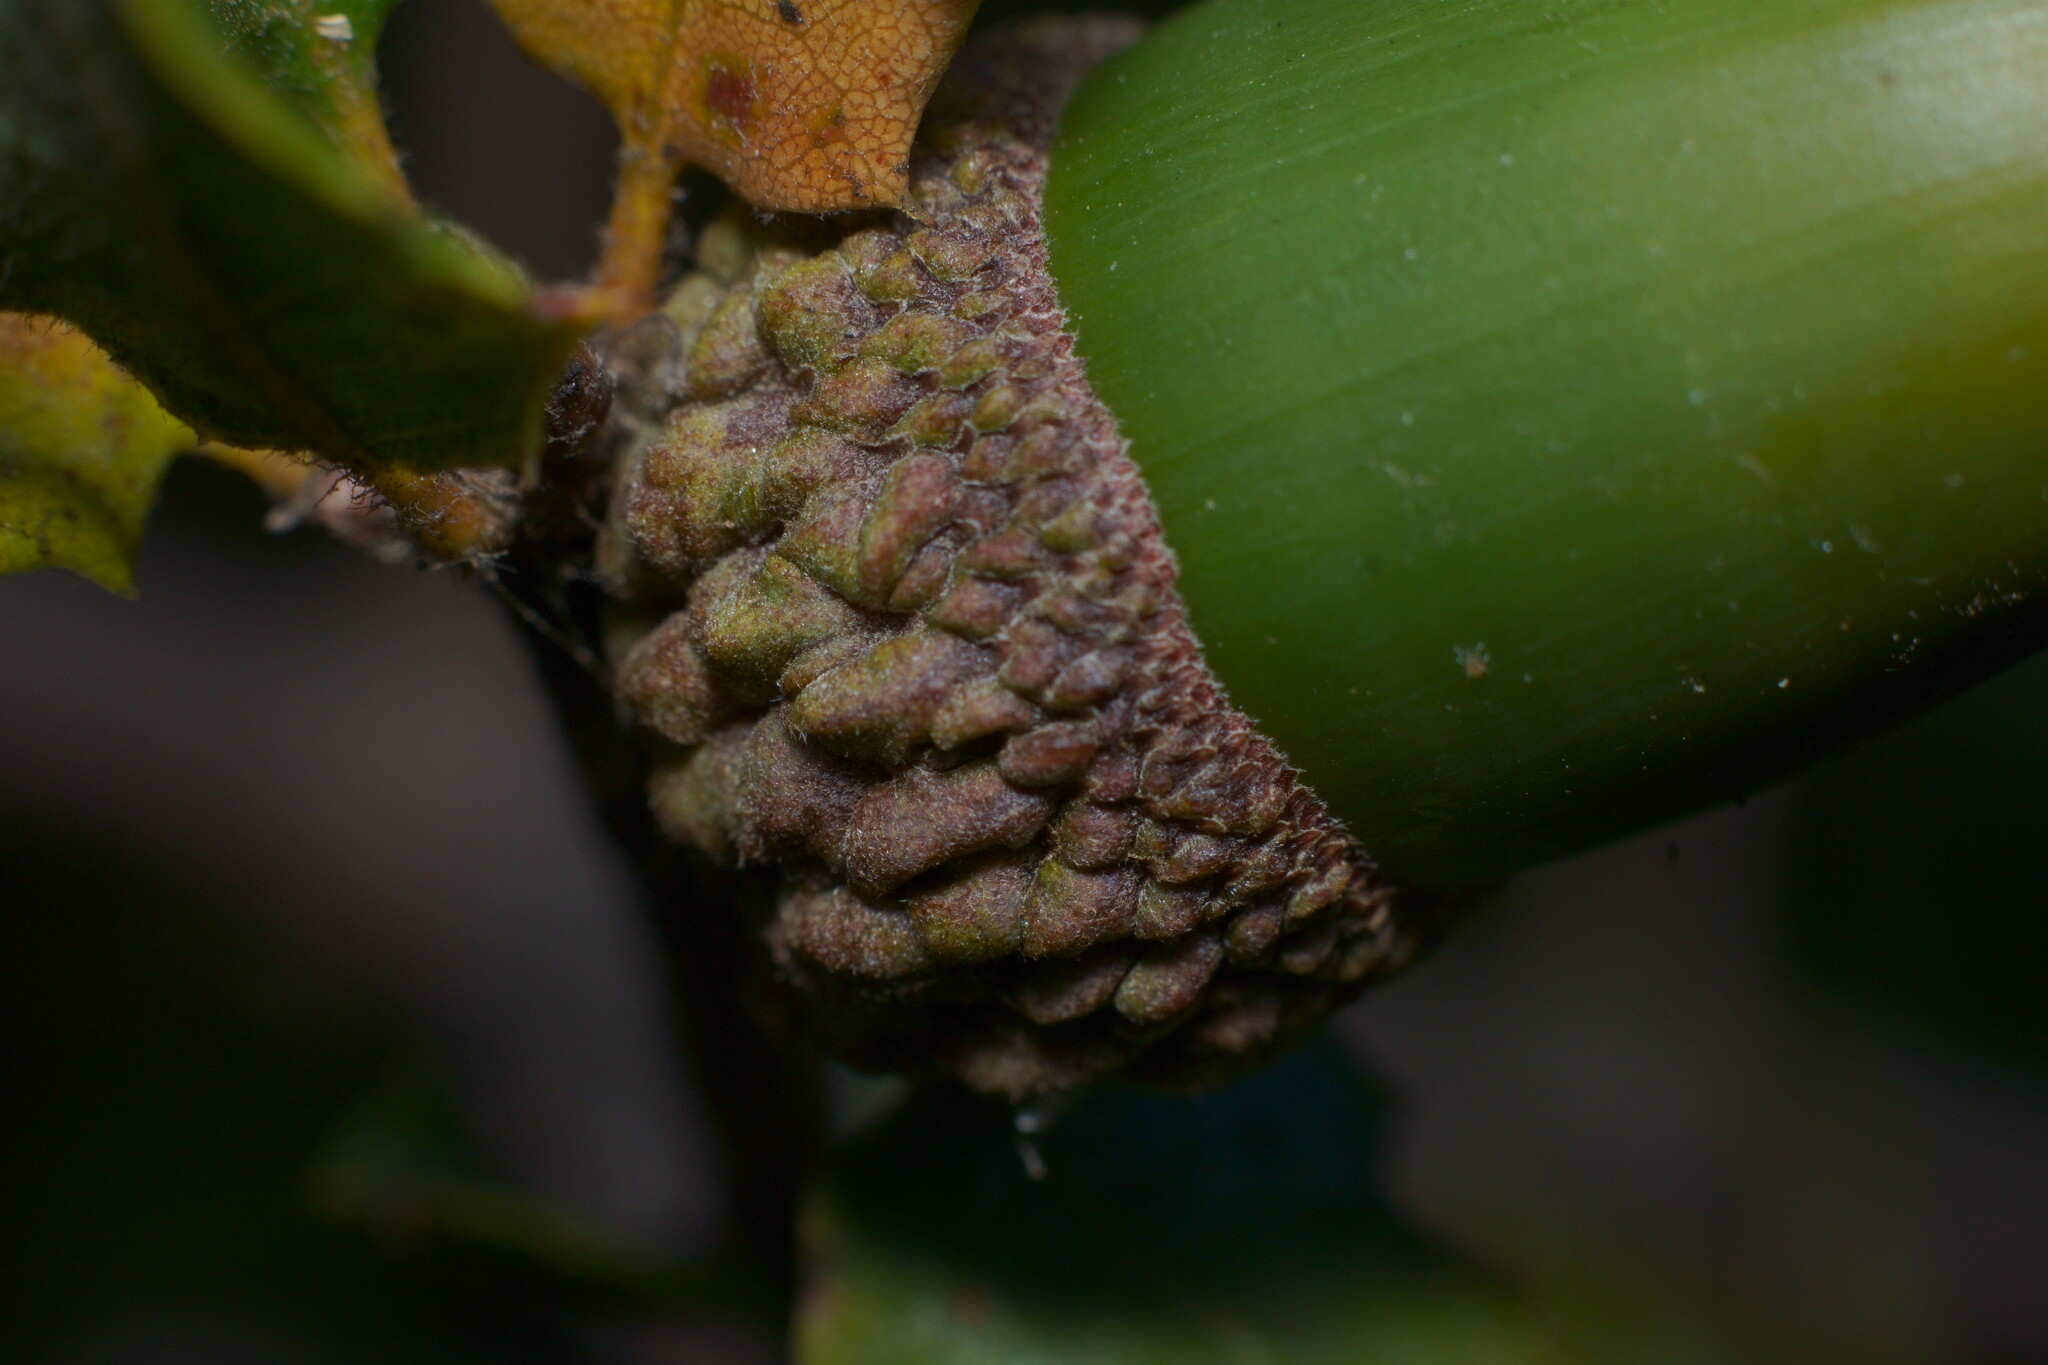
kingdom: Plantae
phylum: Tracheophyta
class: Magnoliopsida
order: Fagales
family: Fagaceae
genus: Quercus
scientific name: Quercus dumosa
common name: Coastal sage scrub oak
